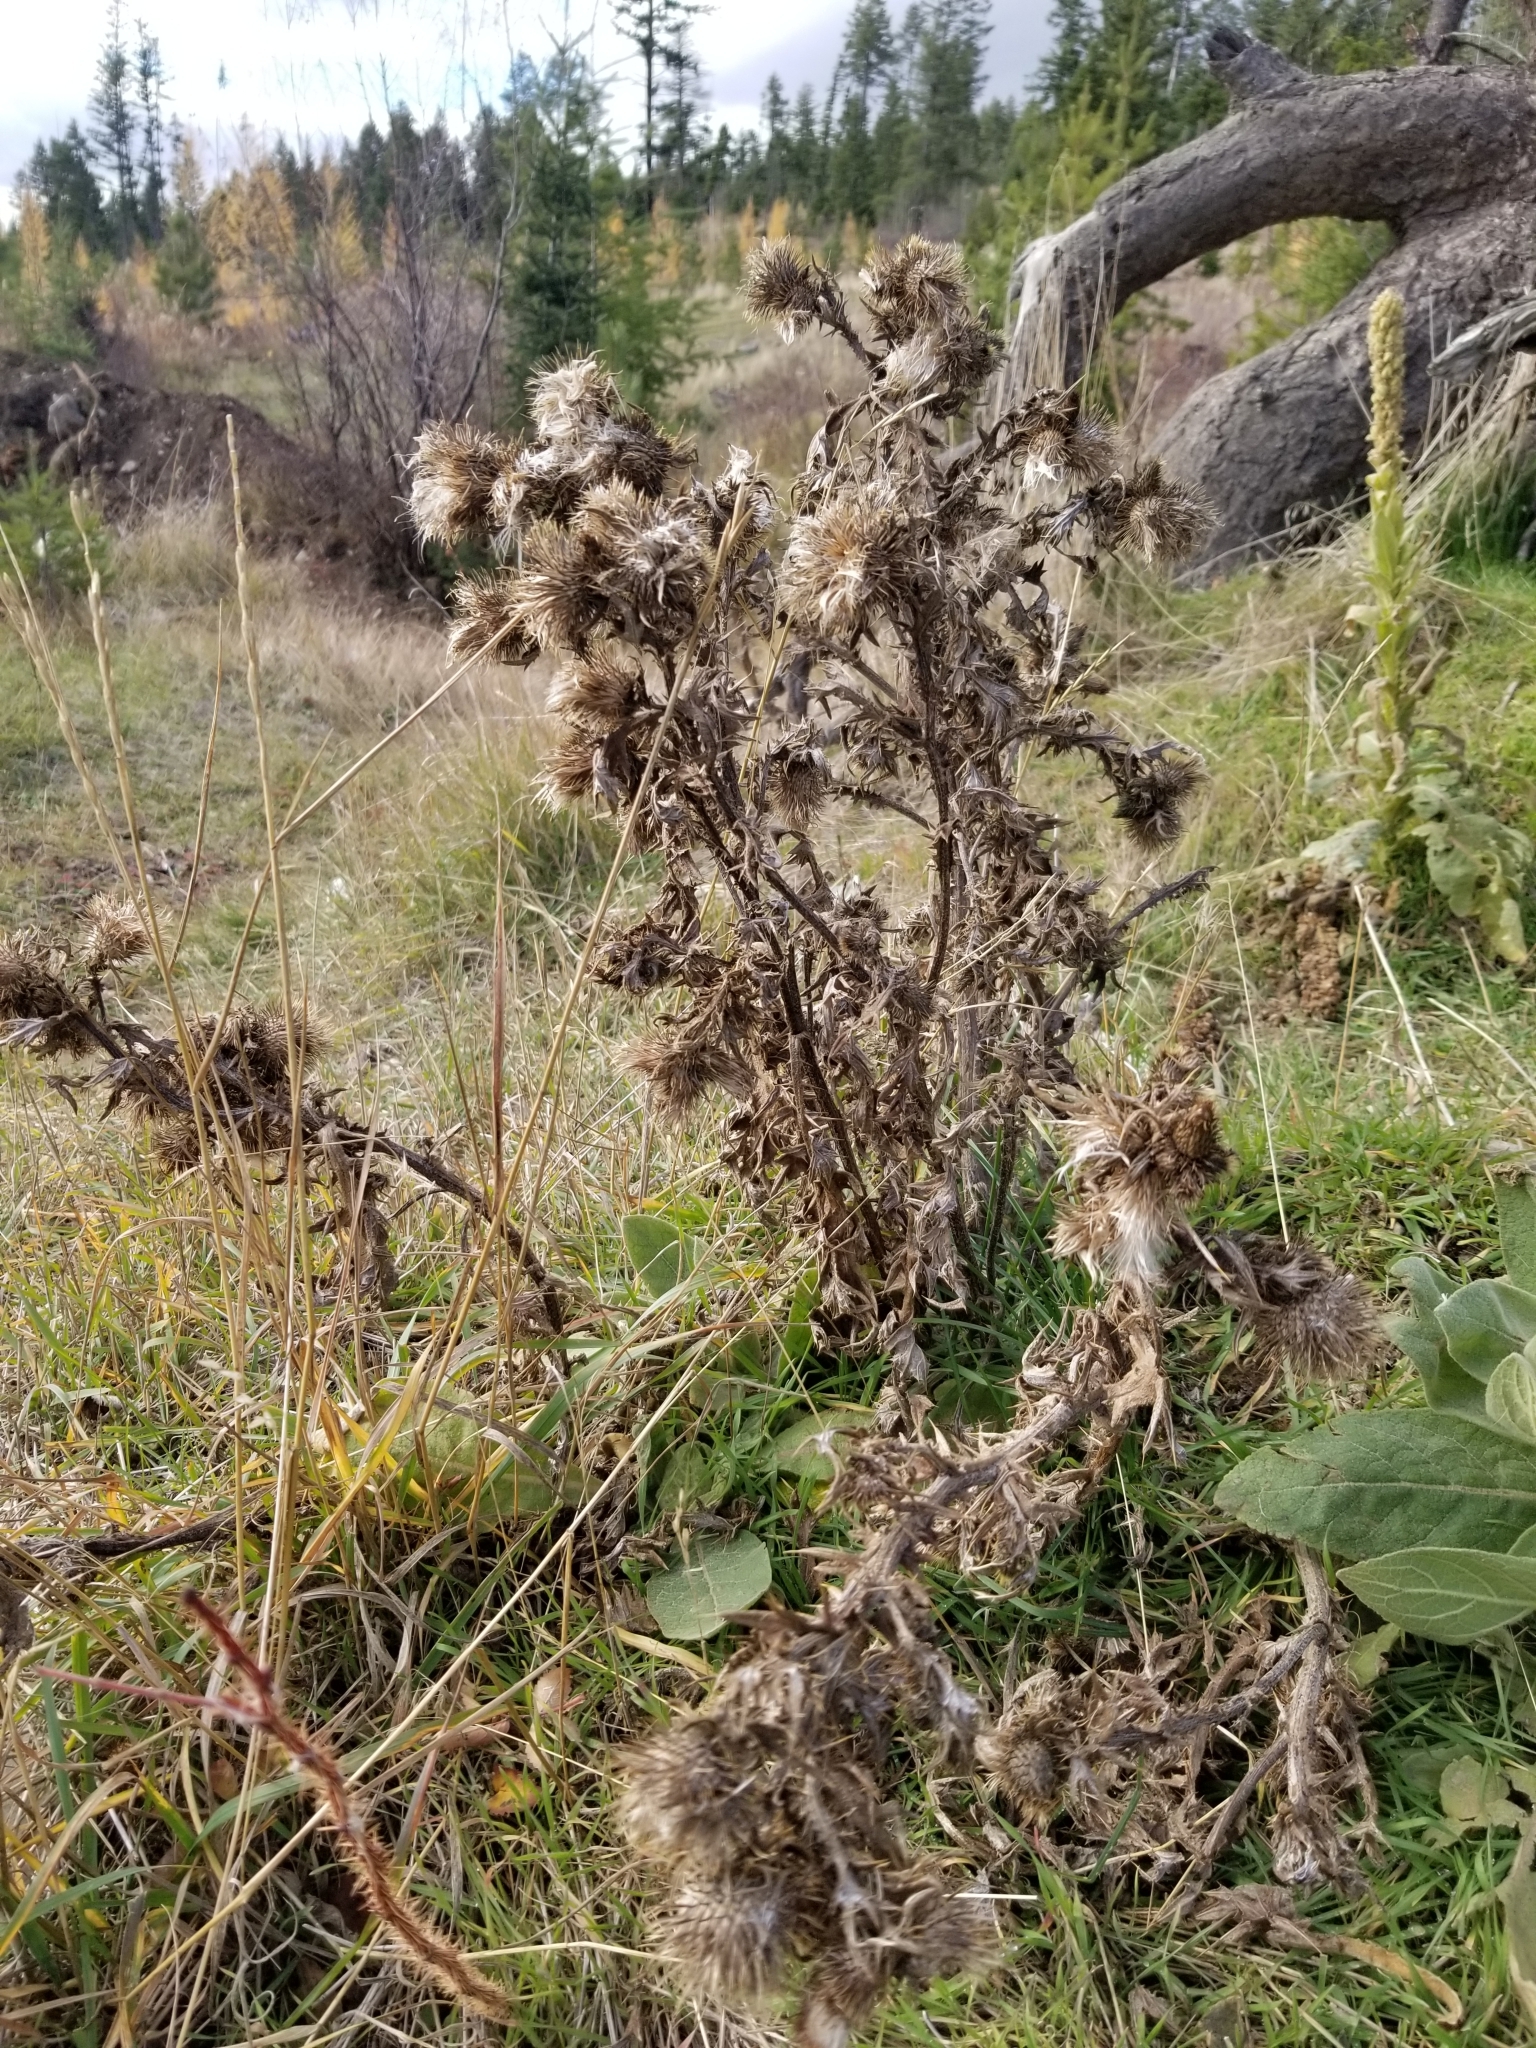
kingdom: Plantae
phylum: Tracheophyta
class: Magnoliopsida
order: Asterales
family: Asteraceae
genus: Cirsium
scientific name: Cirsium vulgare
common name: Bull thistle
